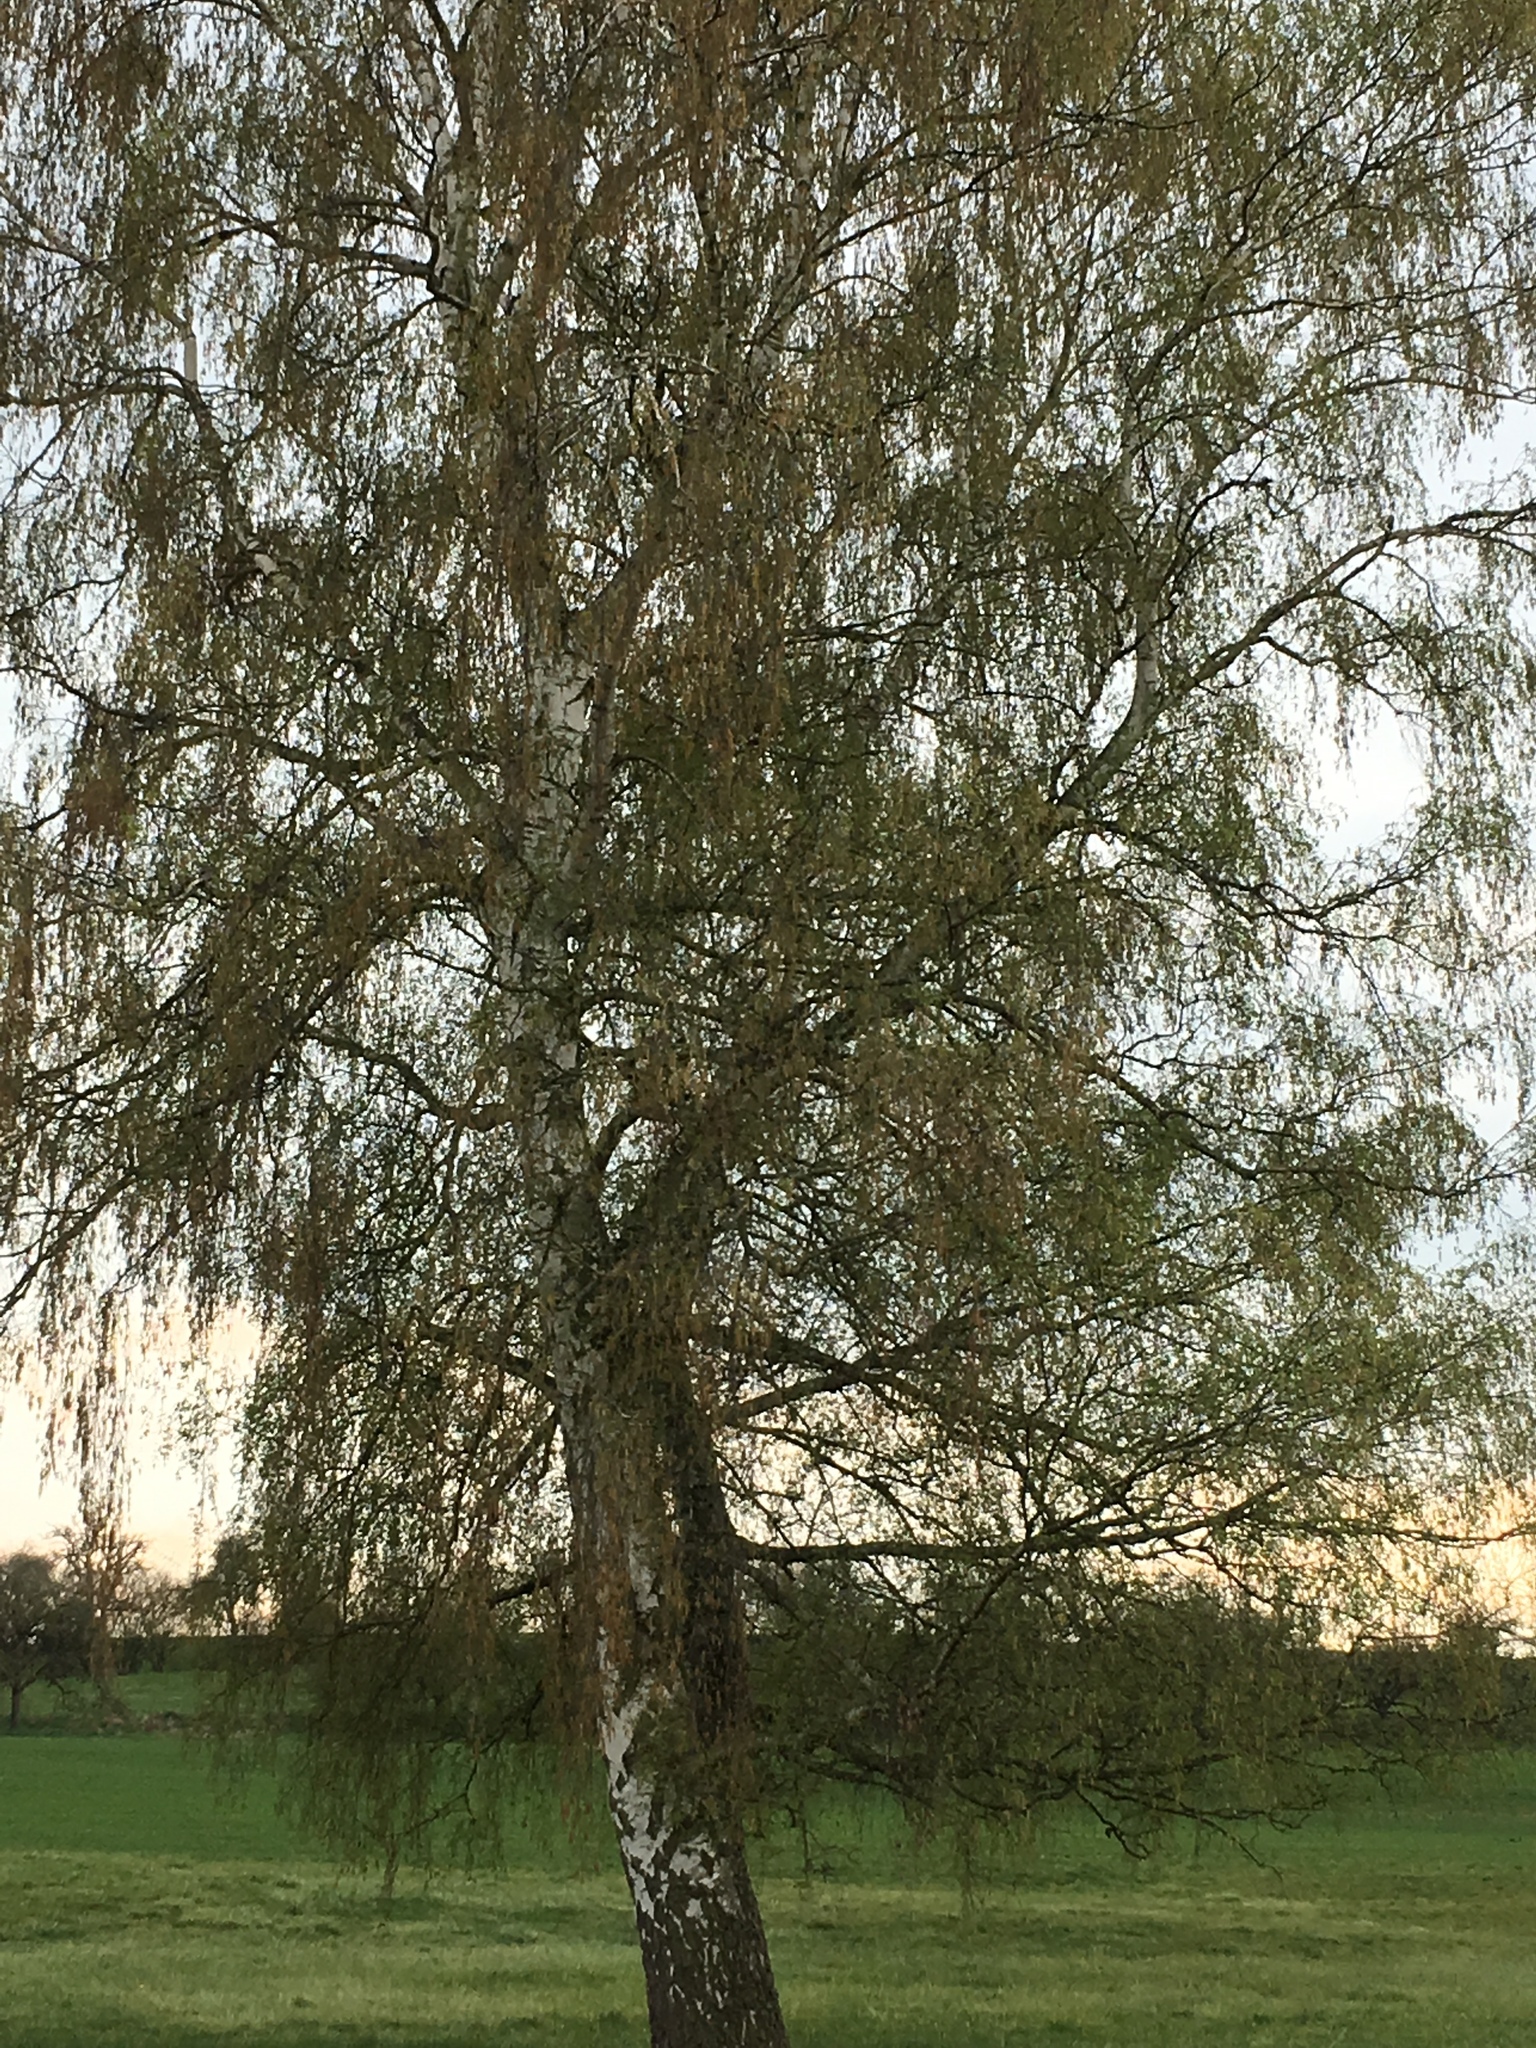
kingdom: Plantae
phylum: Tracheophyta
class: Magnoliopsida
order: Fagales
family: Betulaceae
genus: Betula
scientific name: Betula pendula
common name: Silver birch
